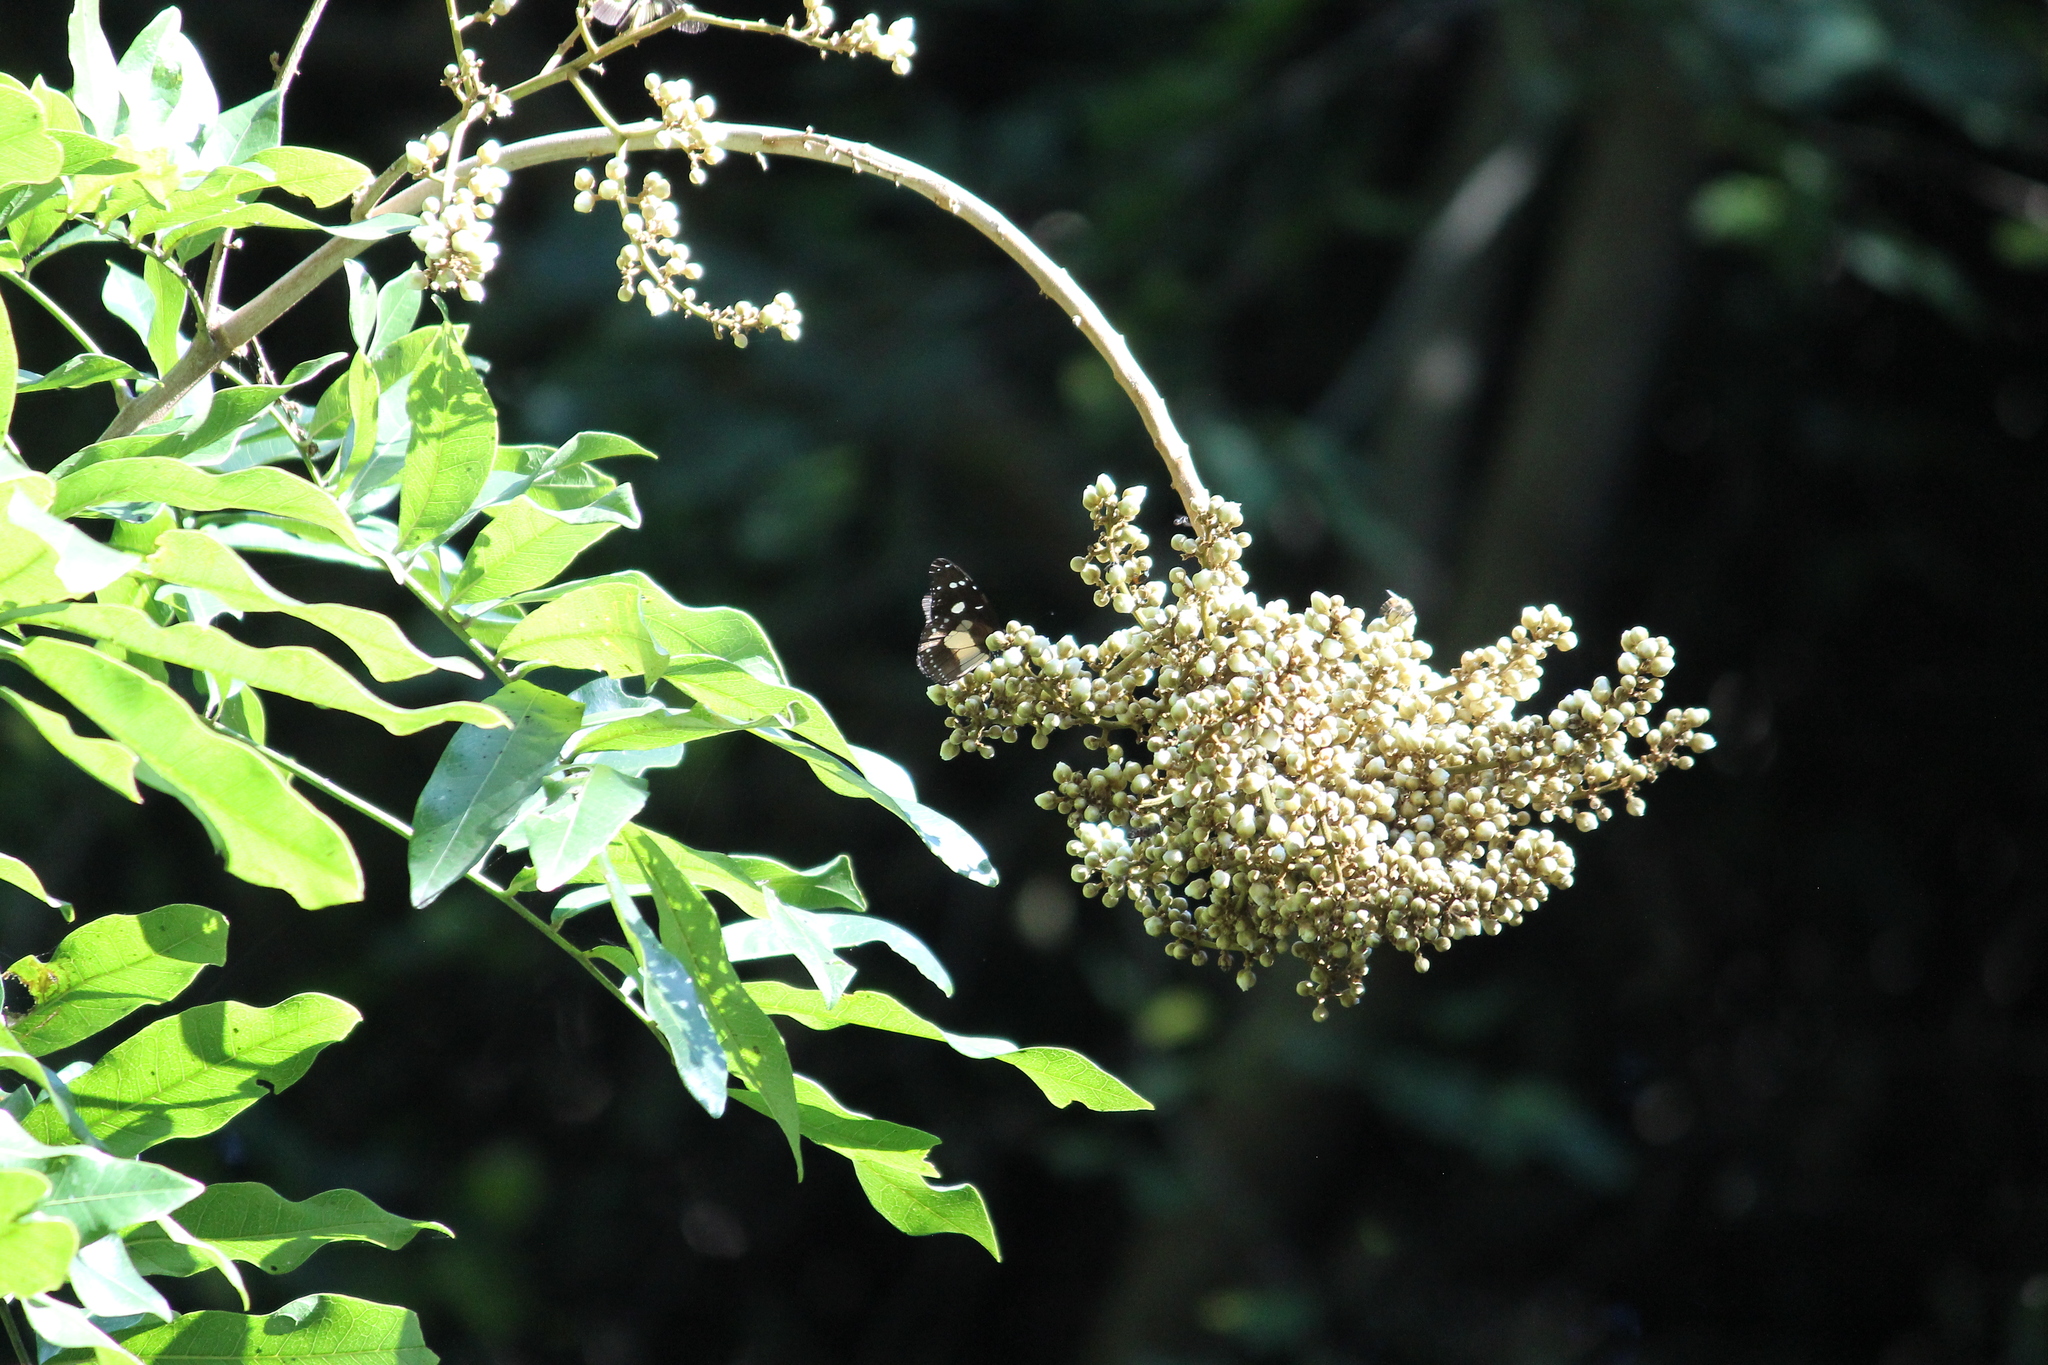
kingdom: Plantae
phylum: Tracheophyta
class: Magnoliopsida
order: Sapindales
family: Sapindaceae
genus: Deinbollia
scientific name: Deinbollia oblongifolia
